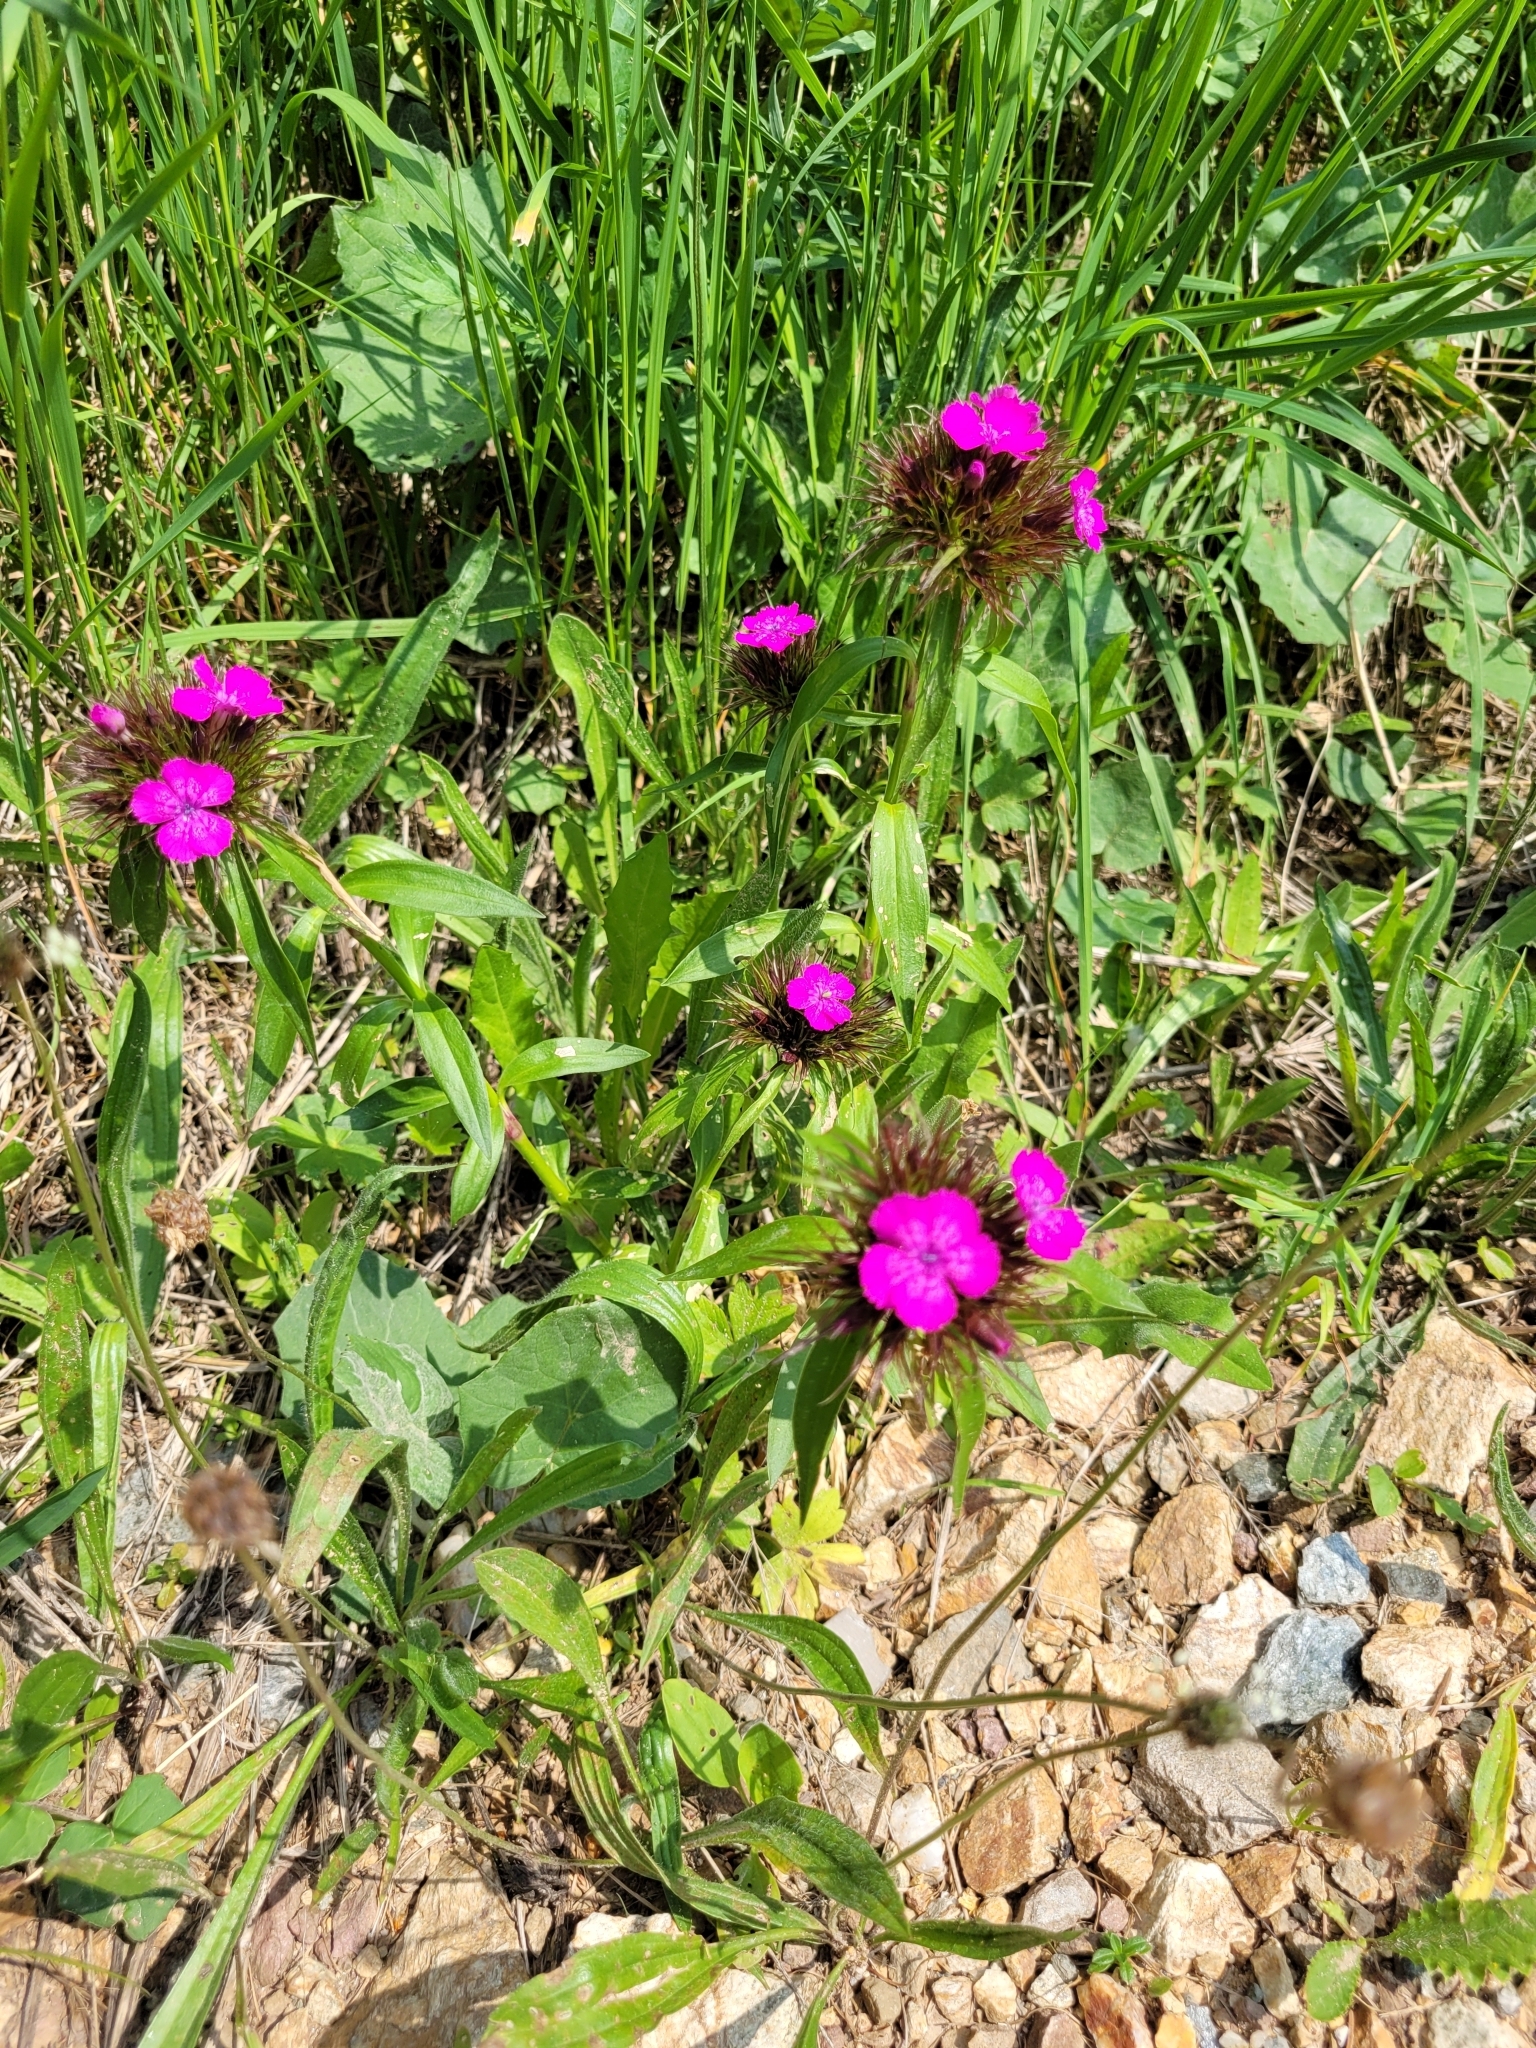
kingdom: Plantae
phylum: Tracheophyta
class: Magnoliopsida
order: Caryophyllales
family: Caryophyllaceae
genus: Dianthus
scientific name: Dianthus barbatus
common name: Sweet-william
